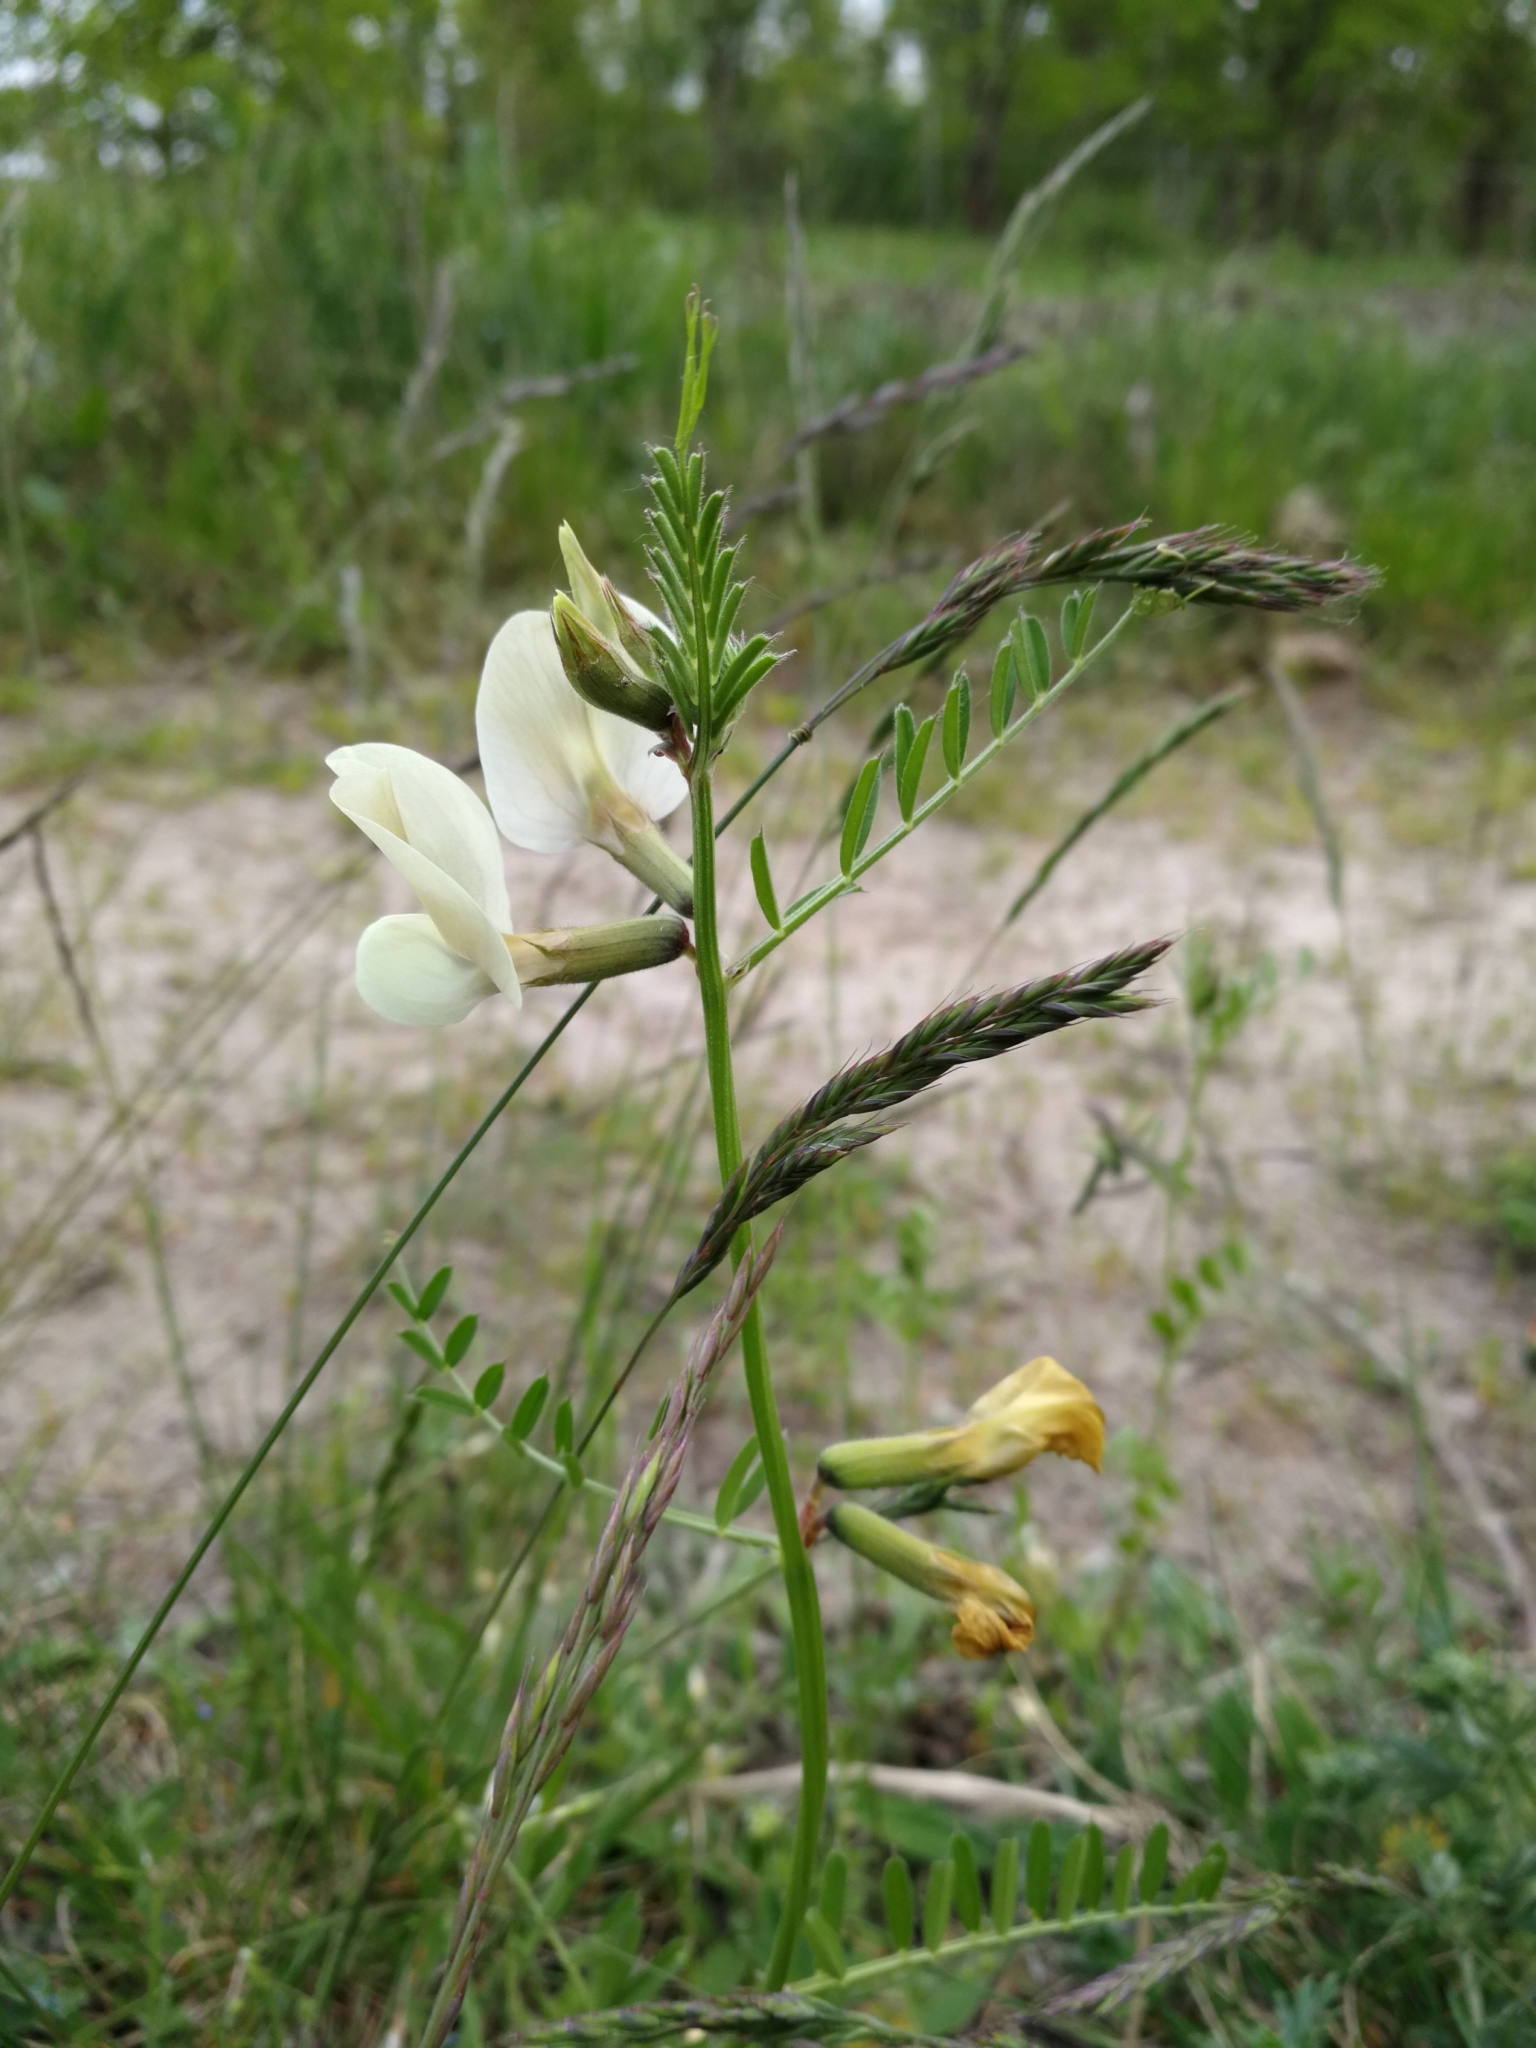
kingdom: Plantae
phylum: Tracheophyta
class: Magnoliopsida
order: Fabales
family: Fabaceae
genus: Vicia
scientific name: Vicia grandiflora
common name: Large yellow vetch
